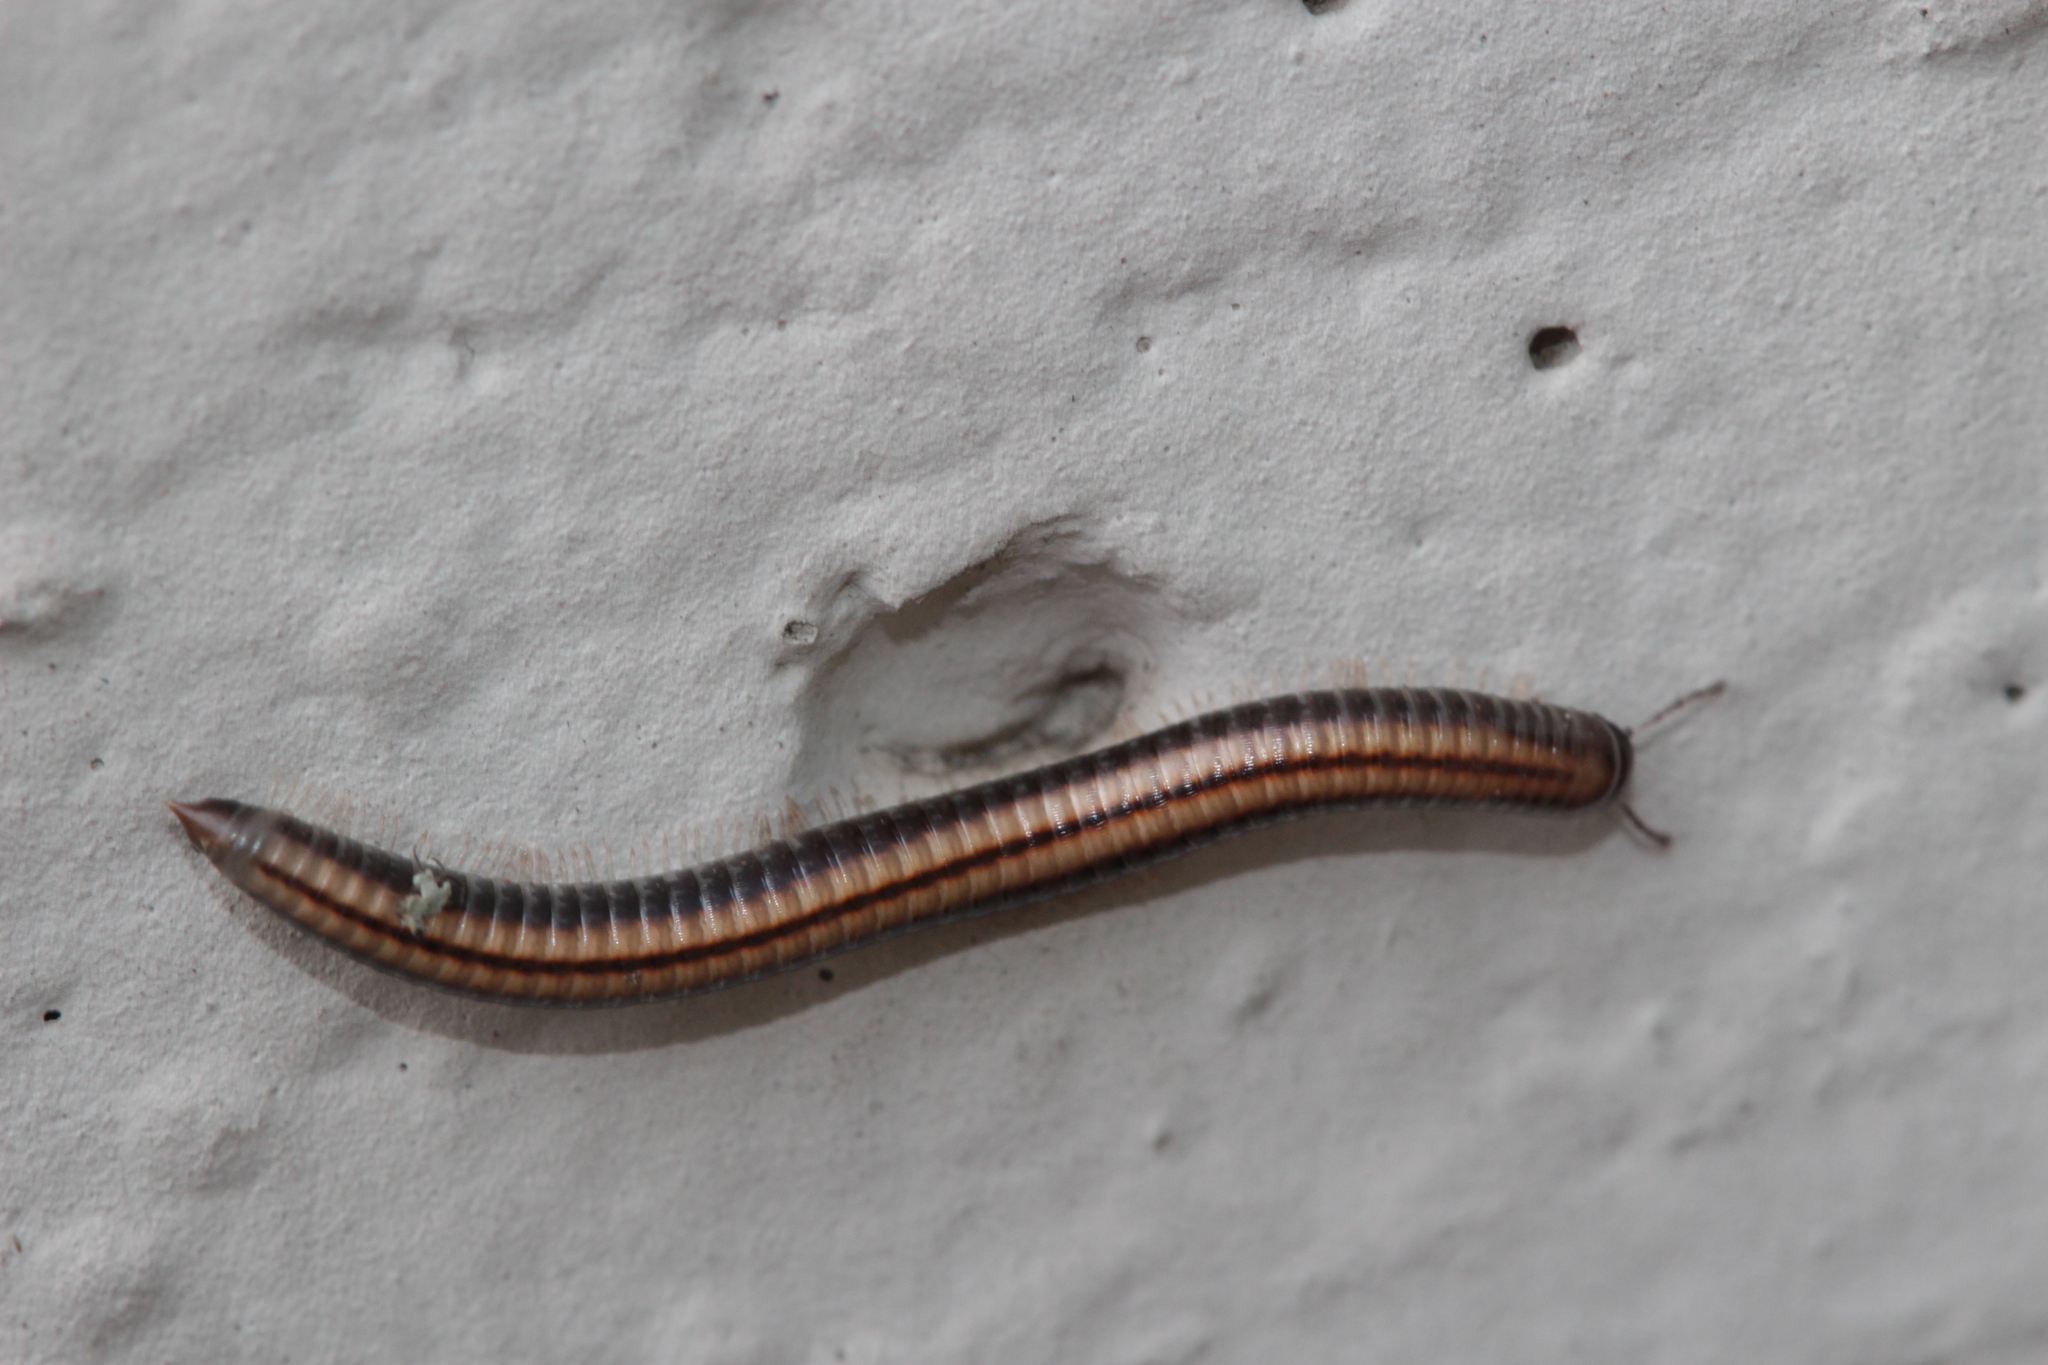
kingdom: Animalia
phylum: Arthropoda
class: Diplopoda
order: Julida
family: Julidae
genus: Ommatoiulus
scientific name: Ommatoiulus sabulosus
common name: Striped millipede
